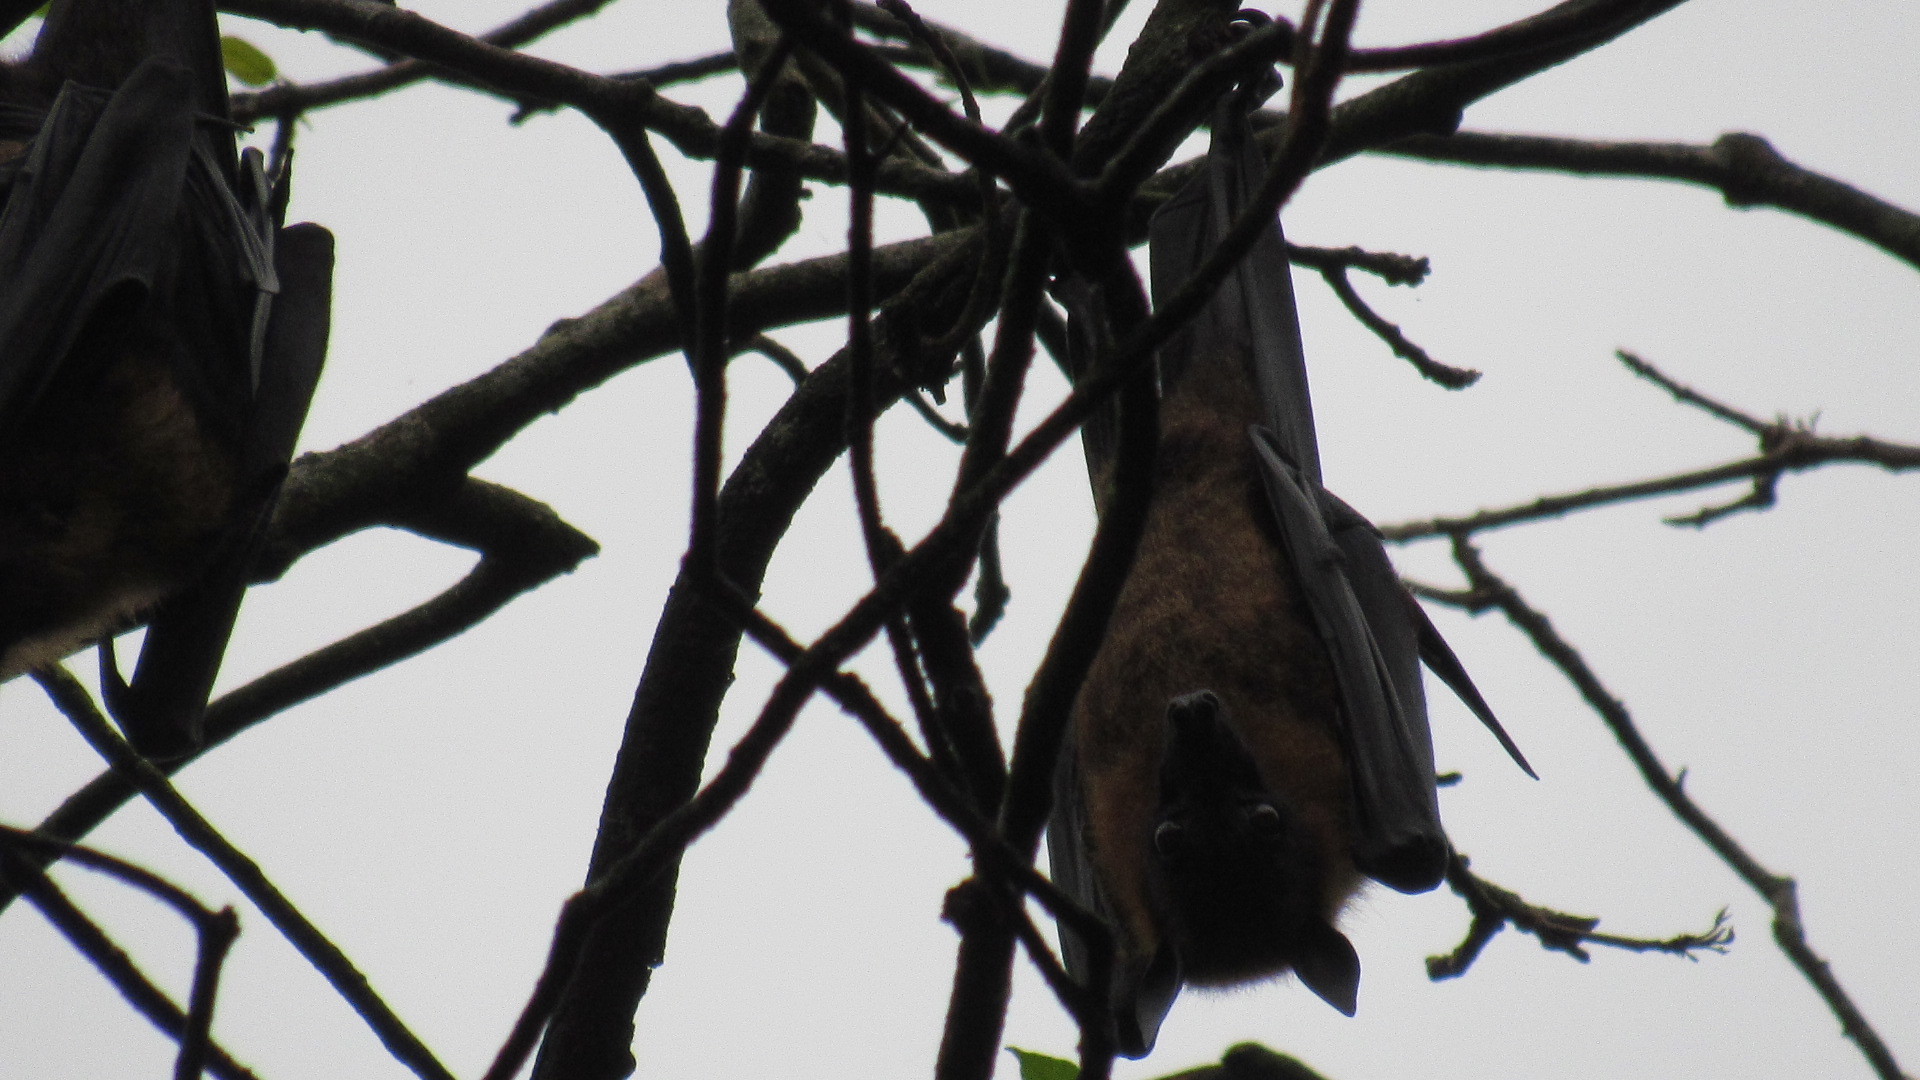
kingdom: Animalia
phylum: Chordata
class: Mammalia
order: Chiroptera
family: Pteropodidae
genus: Pteropus
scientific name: Pteropus vampyrus
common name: Large flying fox
